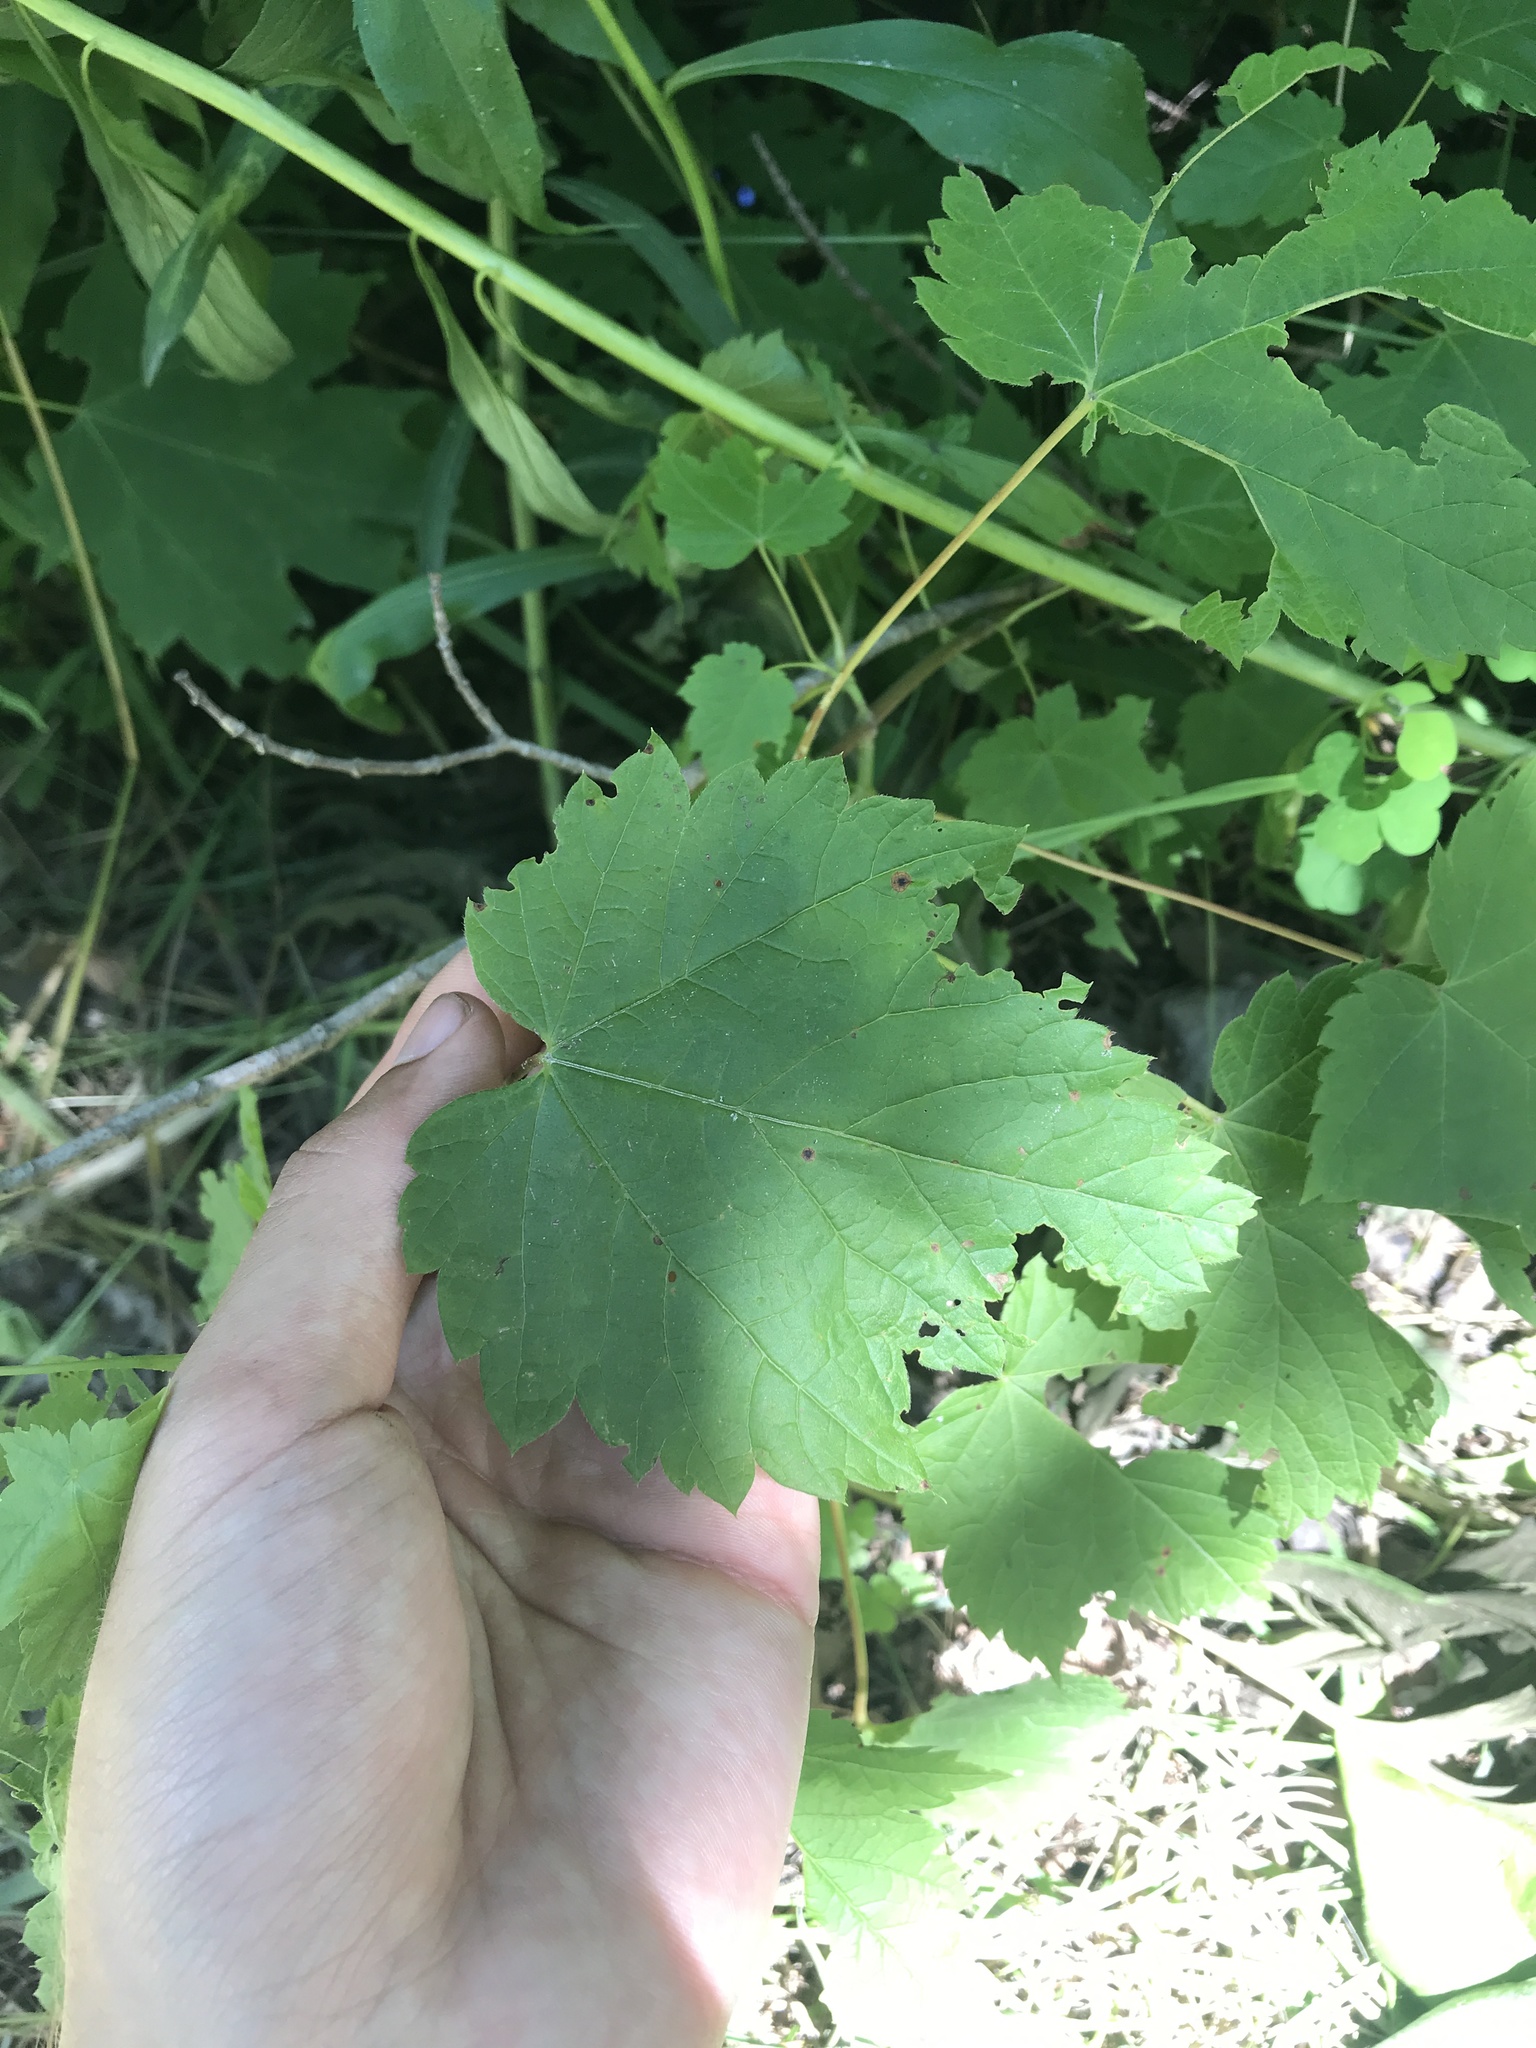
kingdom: Plantae
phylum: Tracheophyta
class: Magnoliopsida
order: Sapindales
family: Sapindaceae
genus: Acer
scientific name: Acer spicatum
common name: Mountain maple
